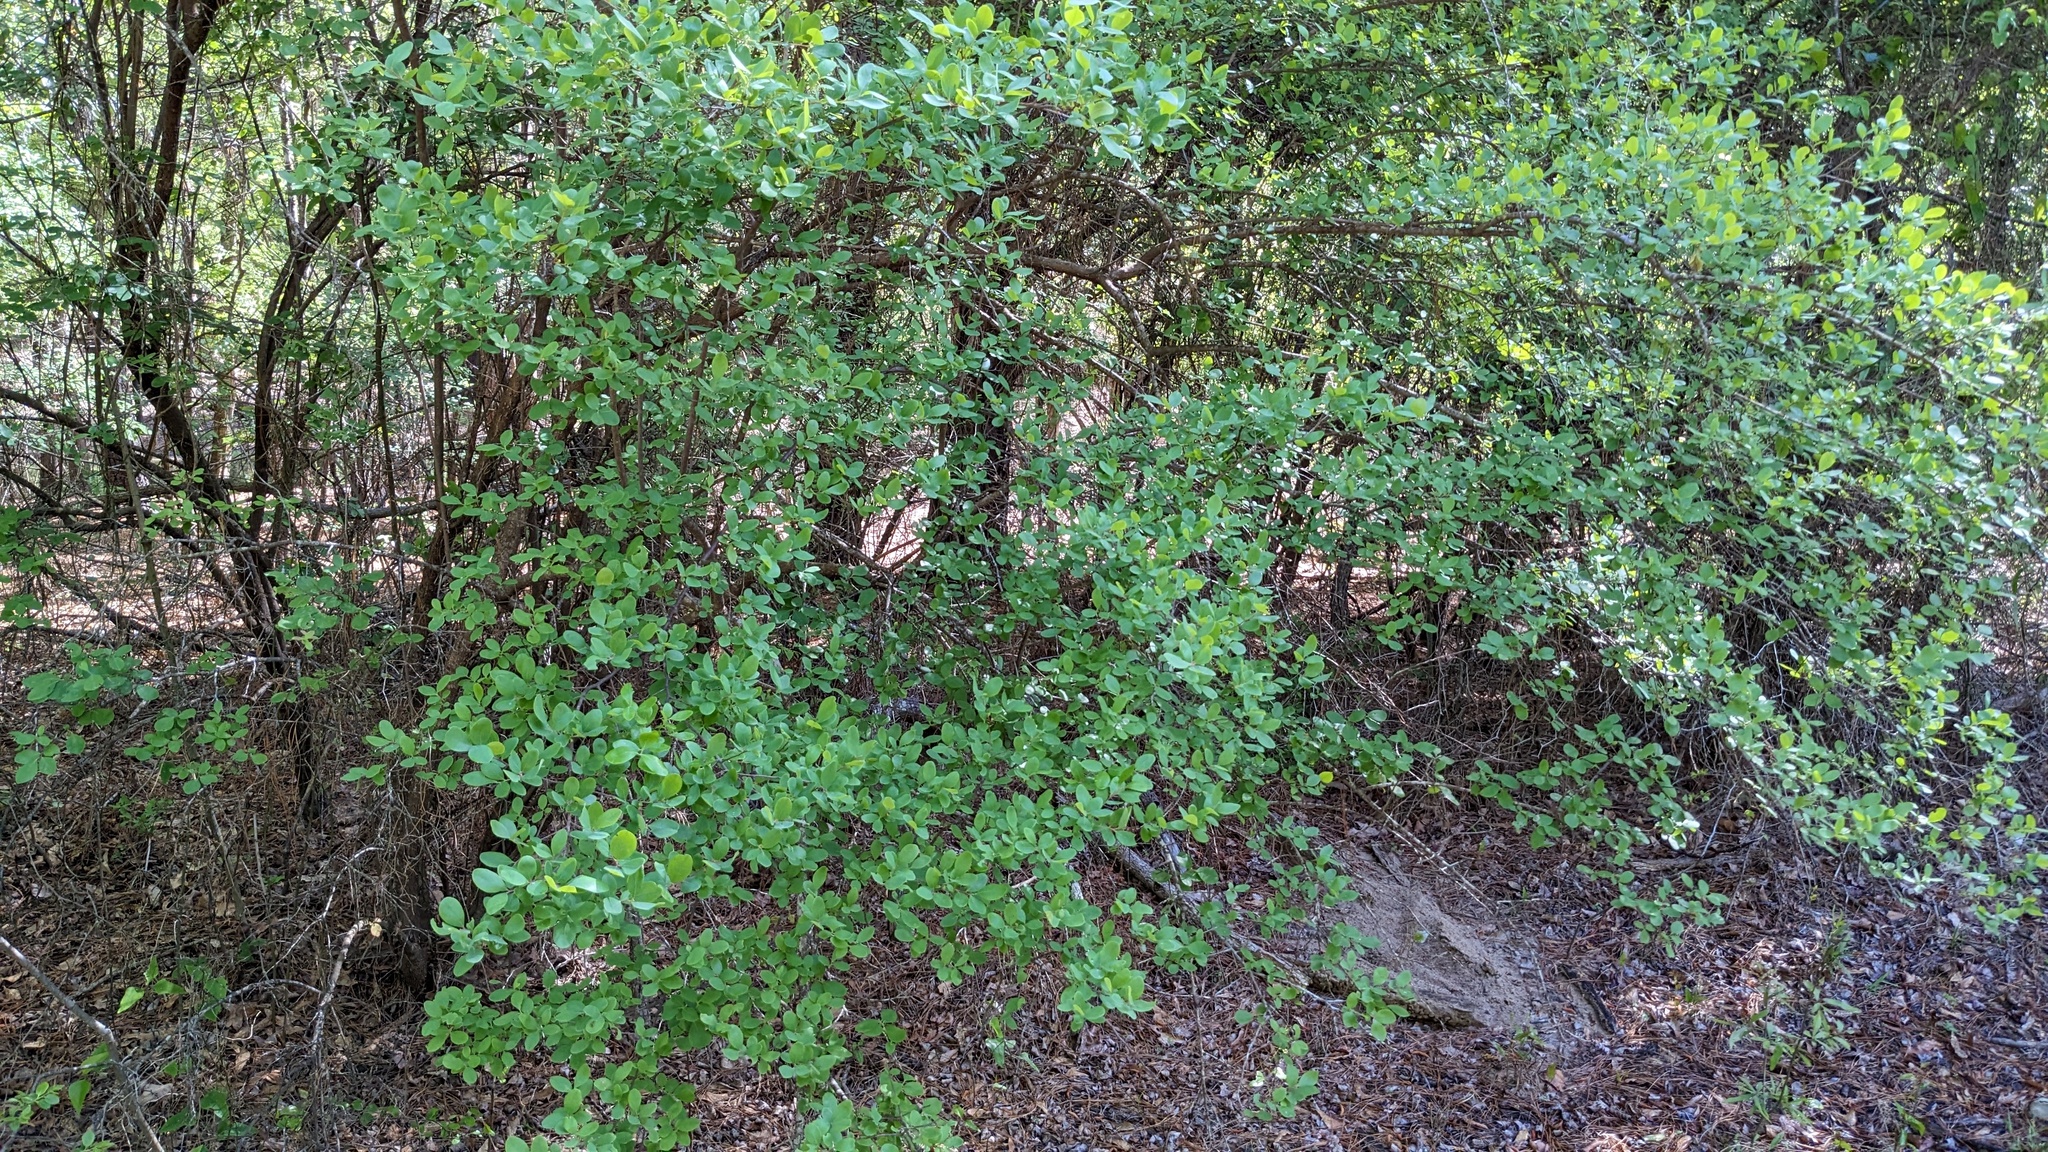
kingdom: Plantae
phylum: Tracheophyta
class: Magnoliopsida
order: Ericales
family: Ericaceae
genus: Vaccinium
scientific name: Vaccinium arboreum
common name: Farkleberry
